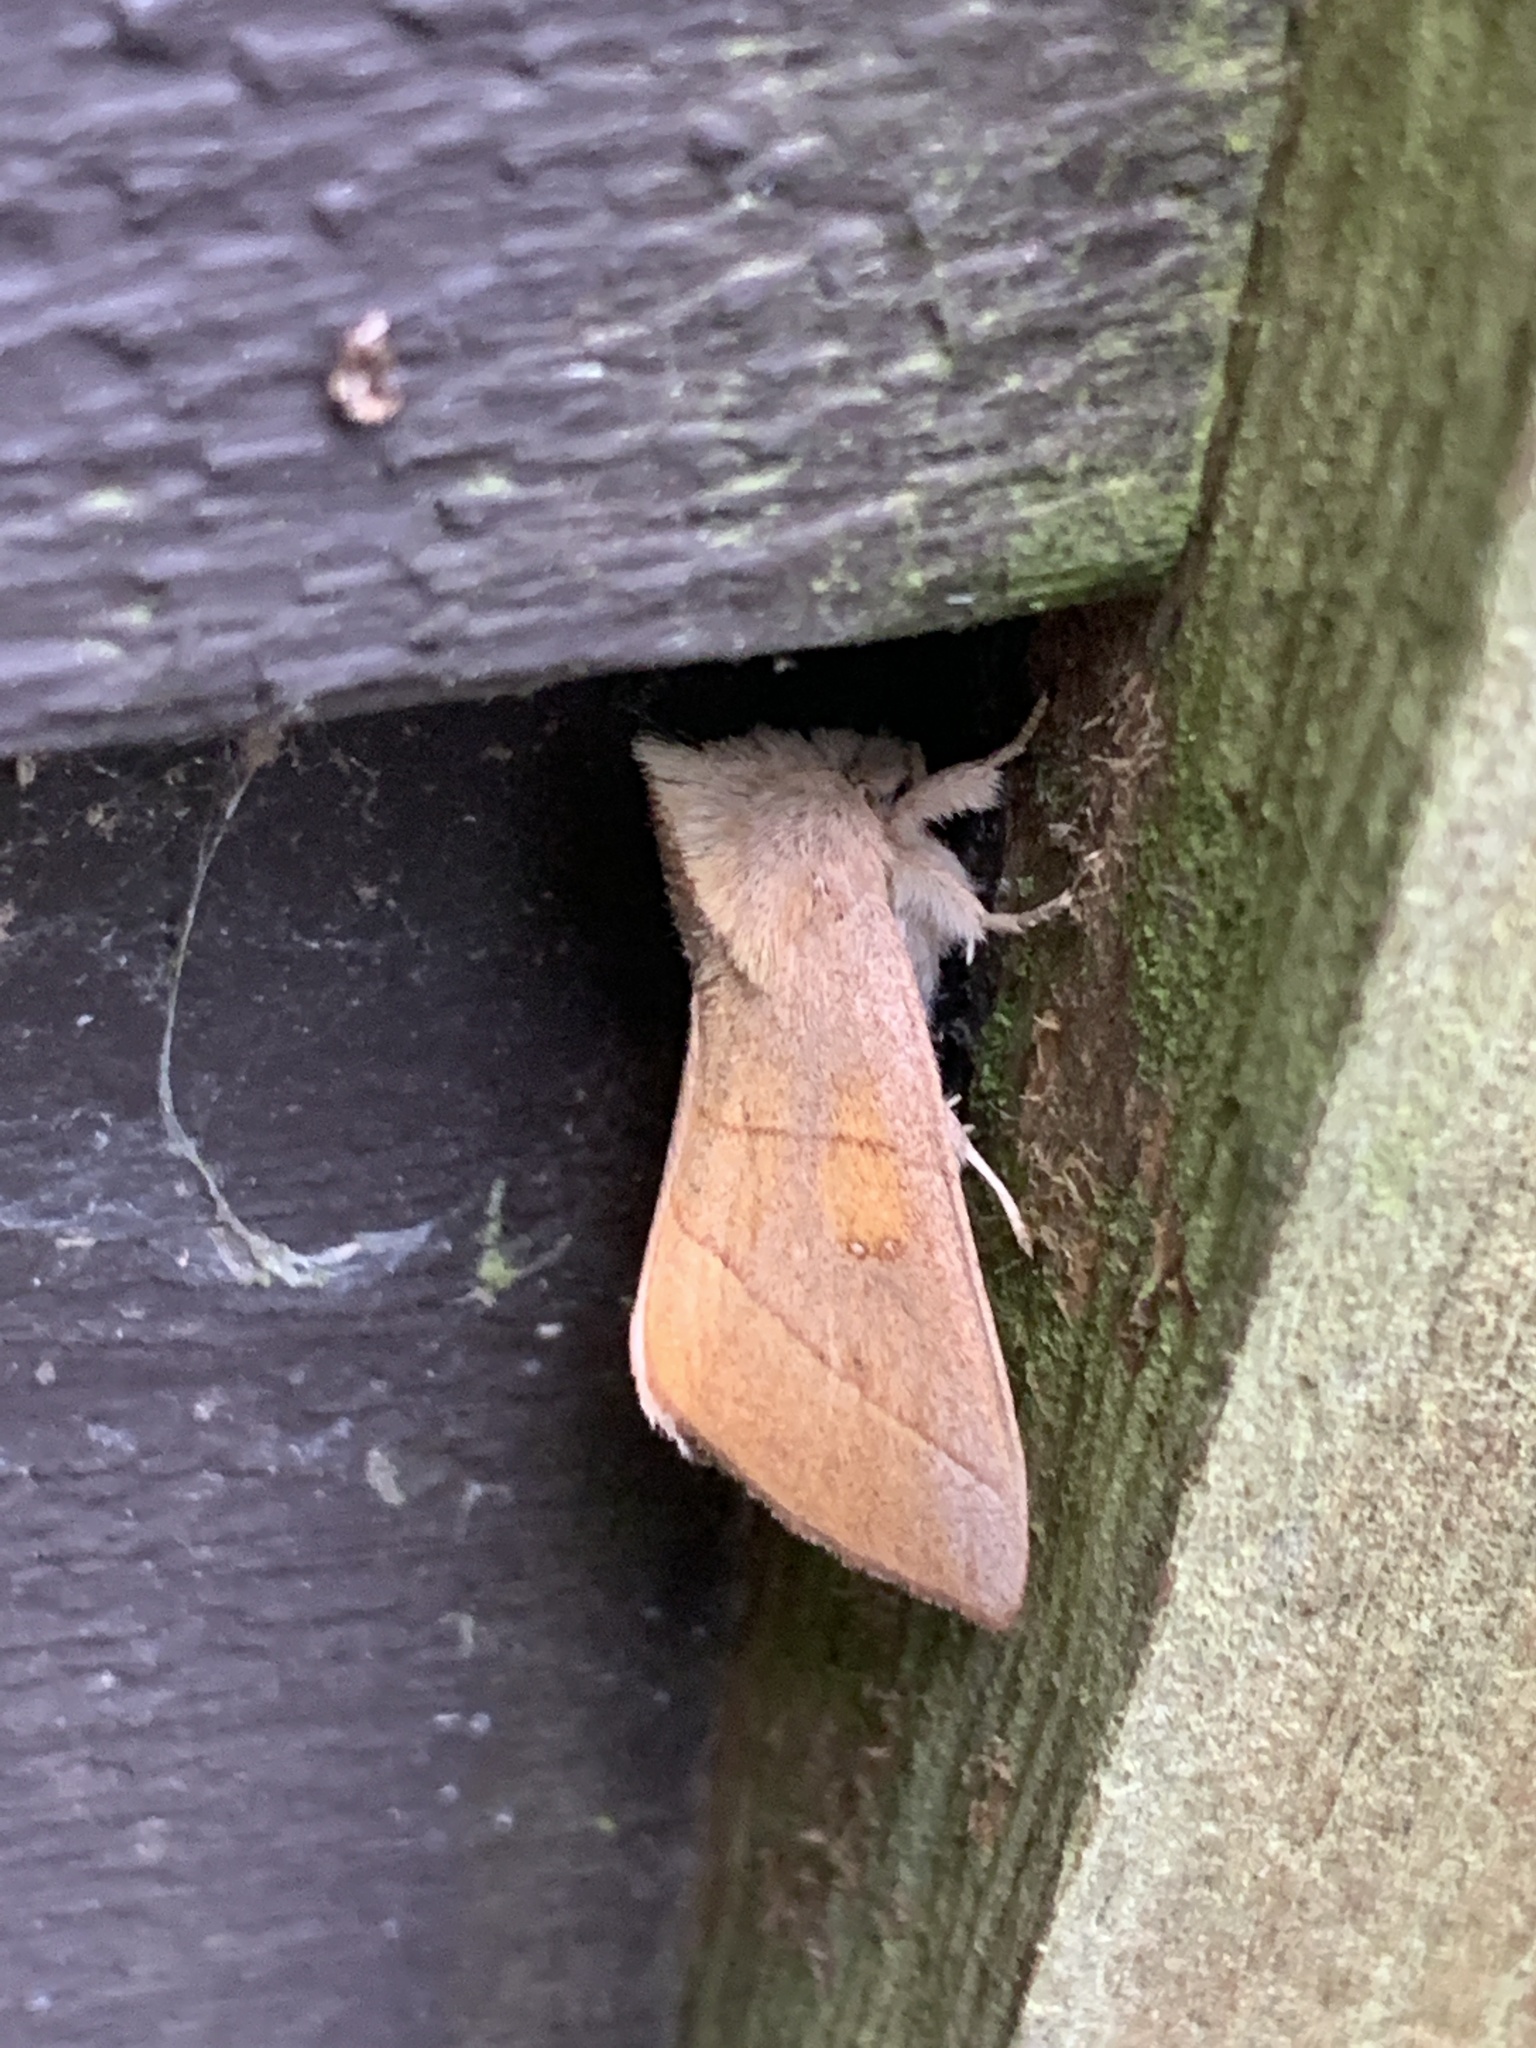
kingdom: Animalia
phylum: Arthropoda
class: Insecta
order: Lepidoptera
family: Notodontidae
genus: Nadata
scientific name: Nadata gibbosa
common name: White-dotted prominent
